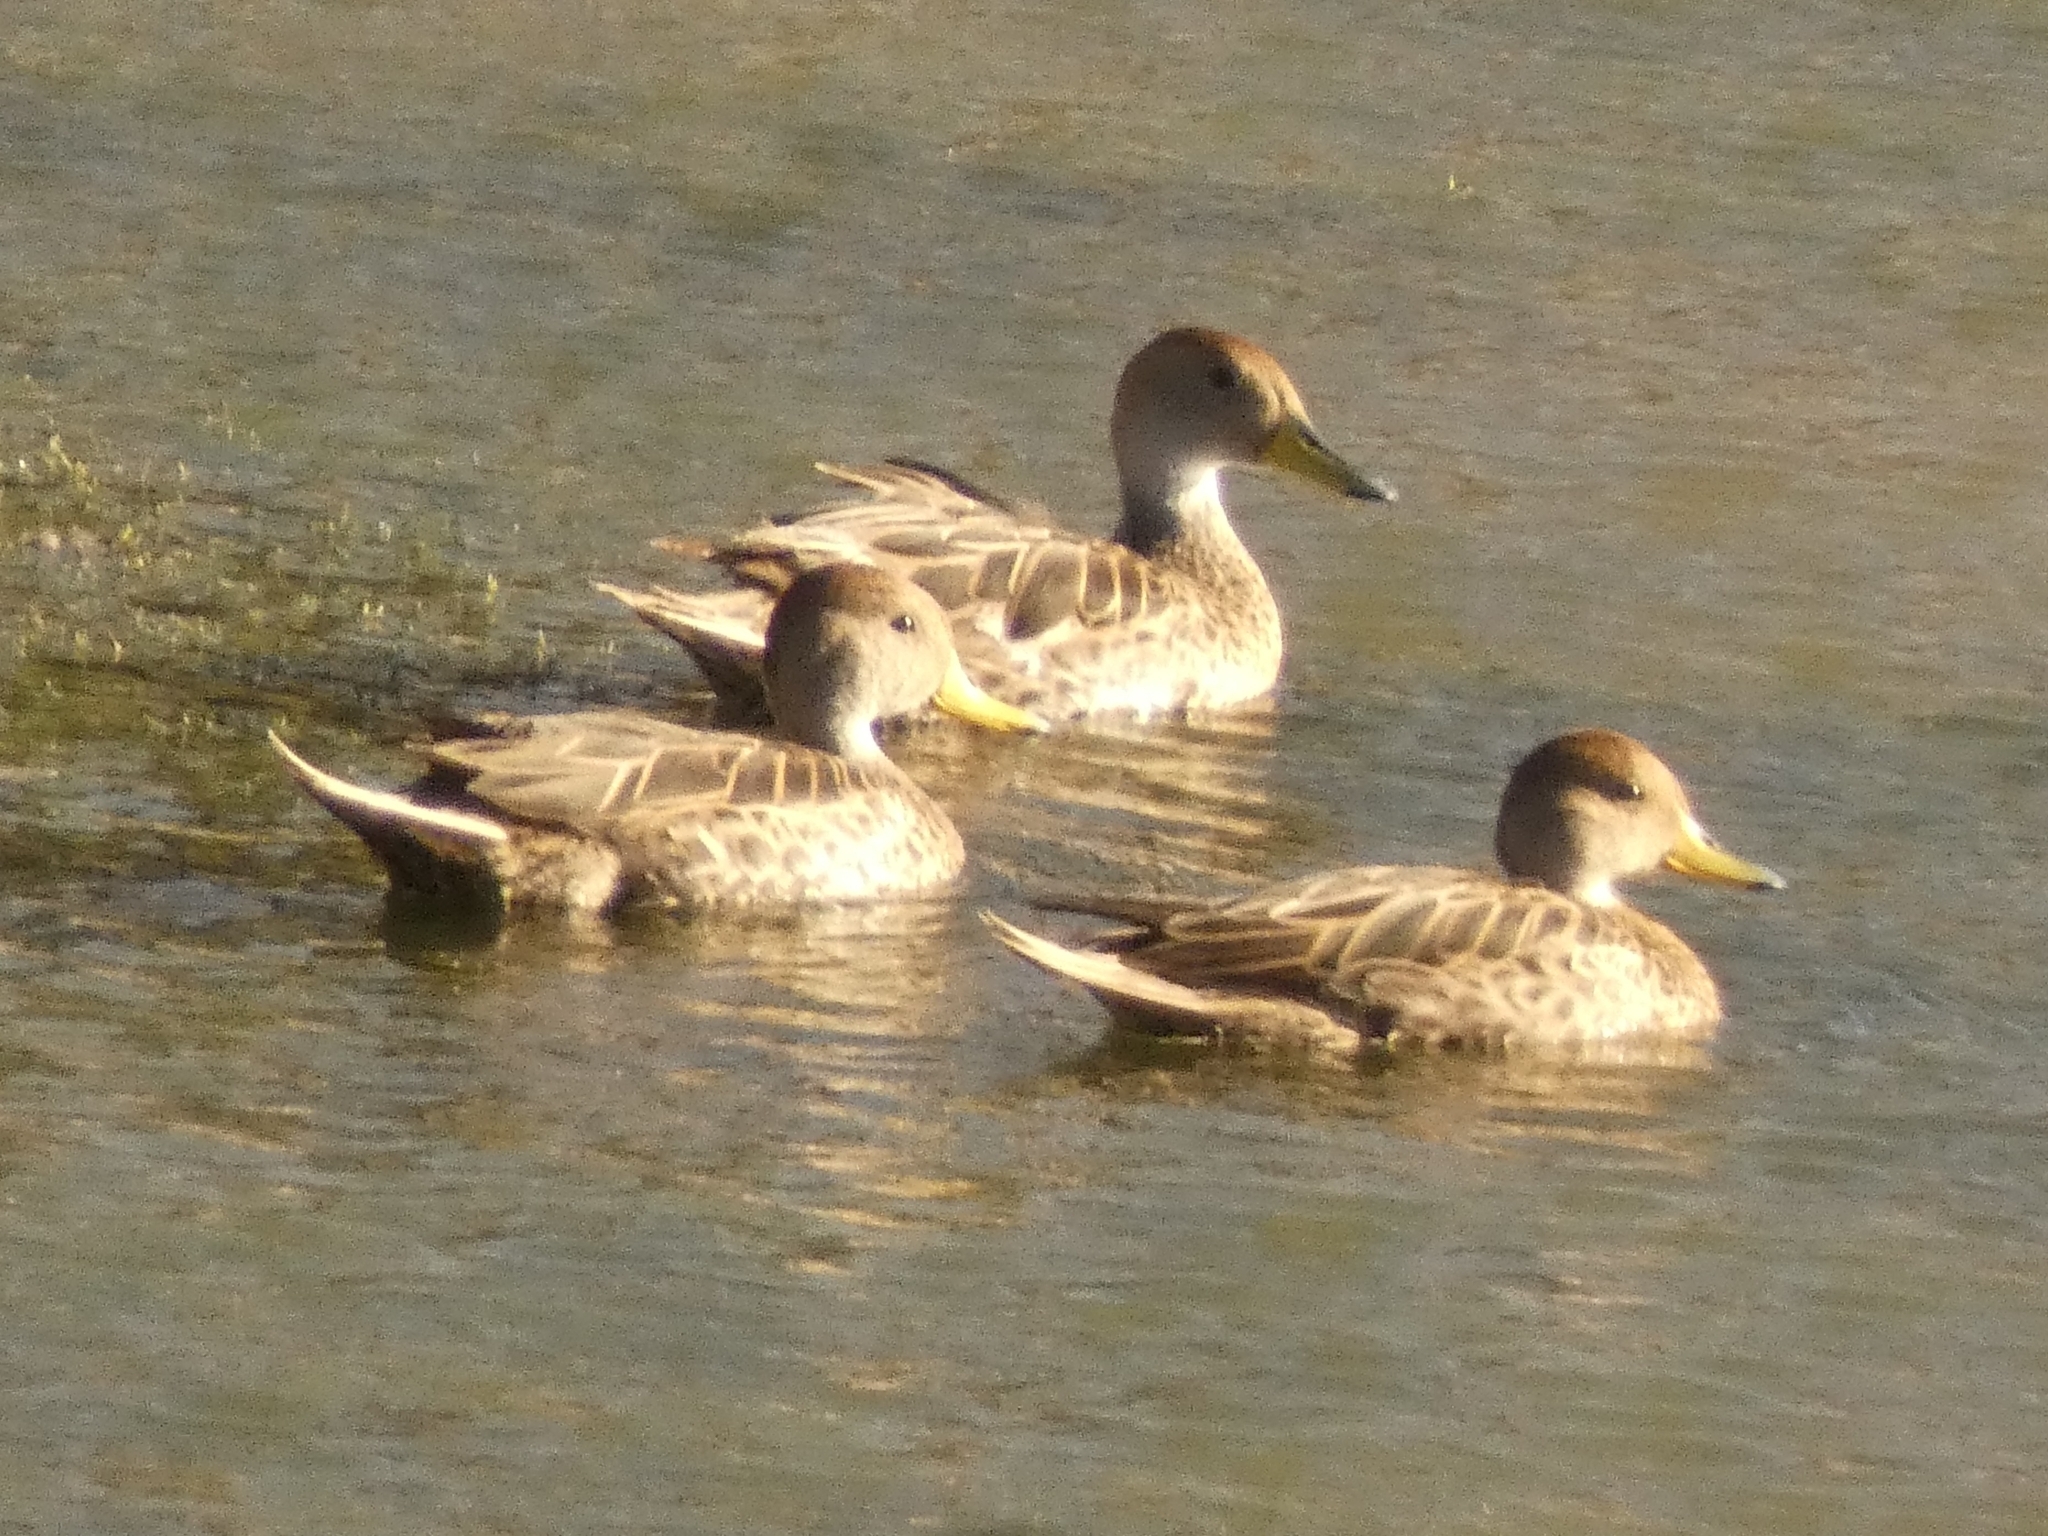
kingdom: Animalia
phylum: Chordata
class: Aves
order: Anseriformes
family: Anatidae
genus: Anas
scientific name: Anas georgica
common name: Yellow-billed pintail
